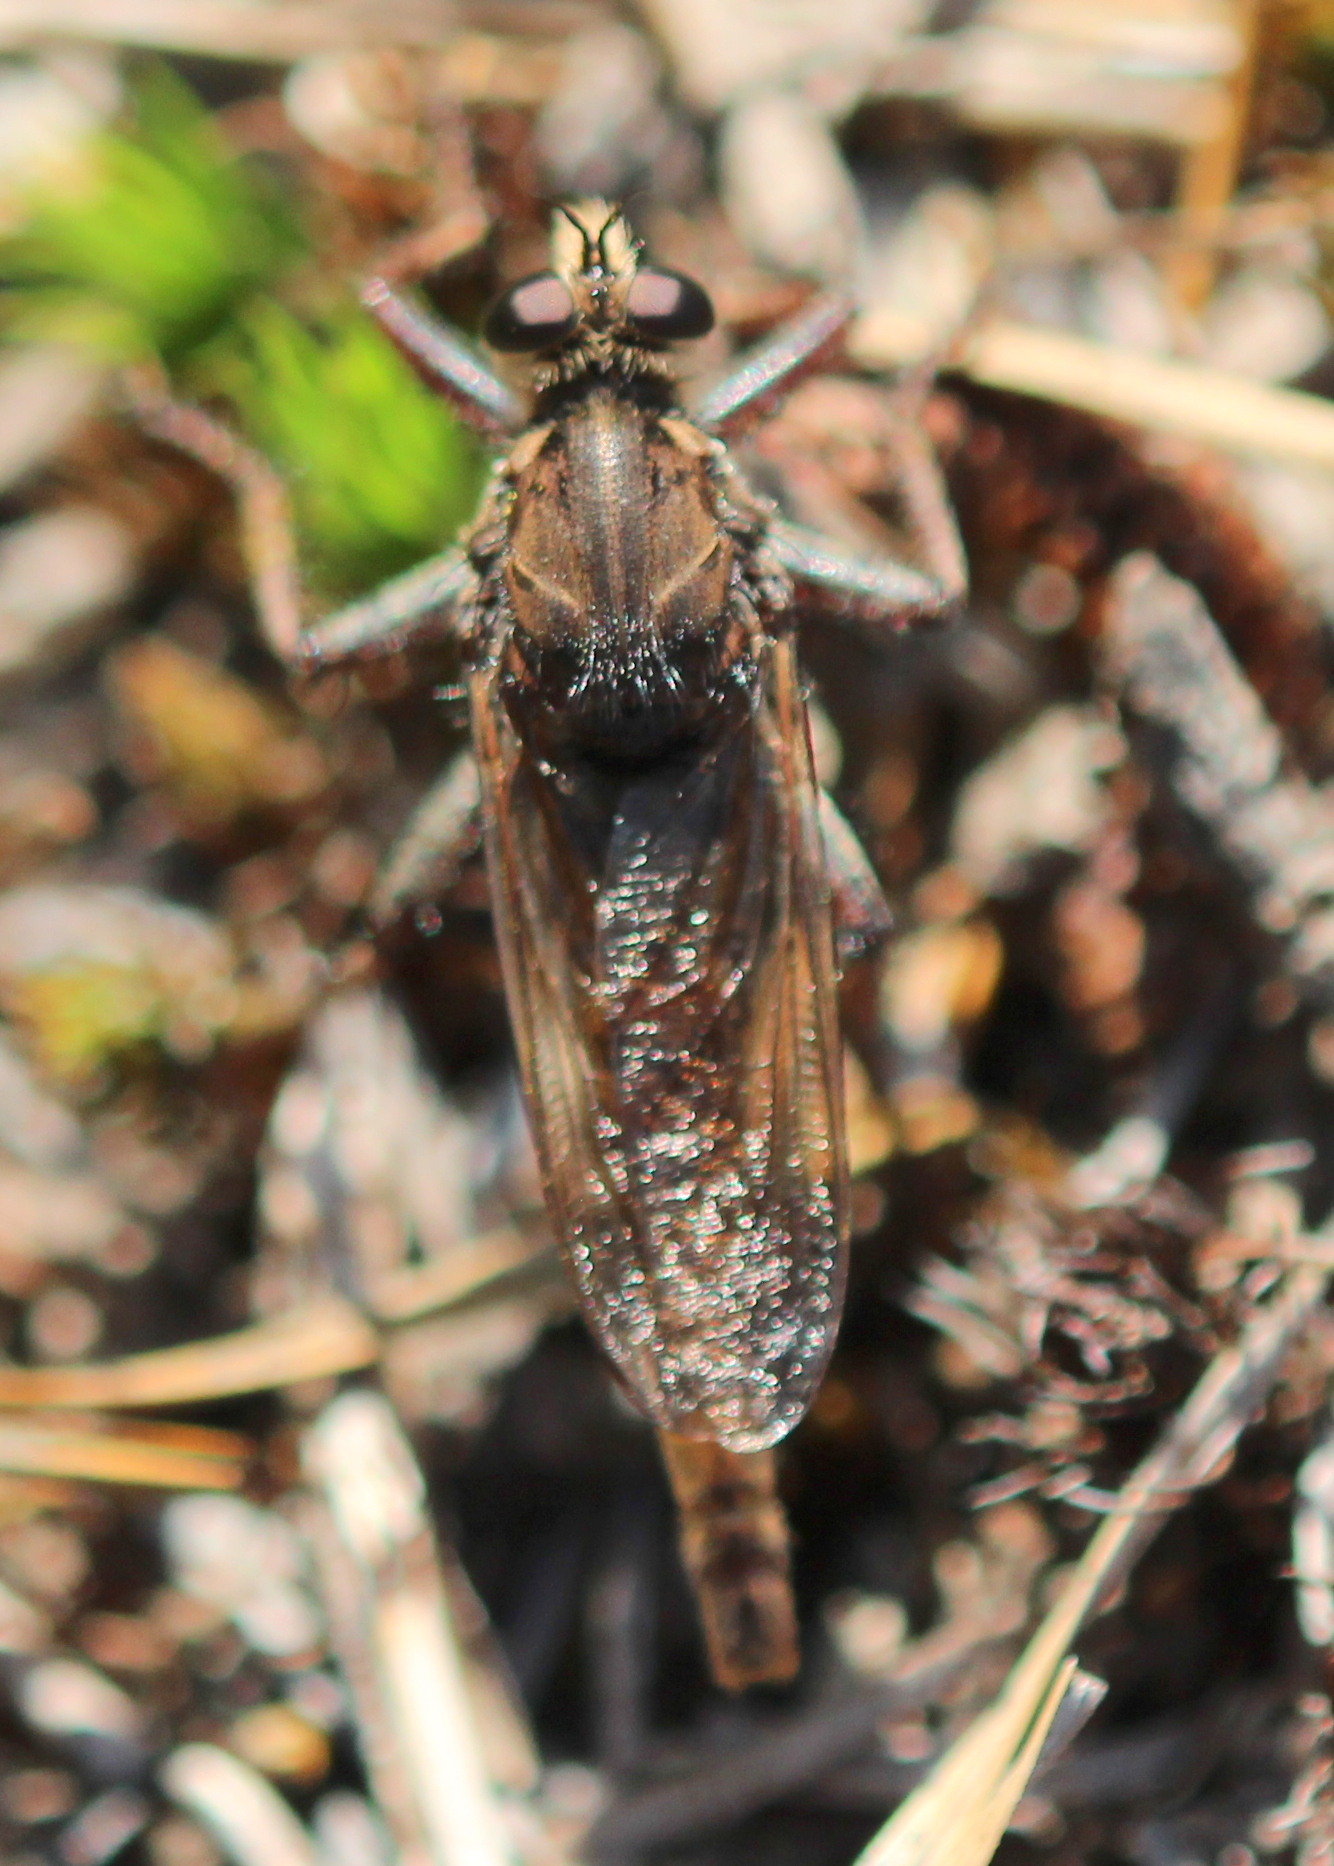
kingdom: Animalia
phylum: Arthropoda
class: Insecta
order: Diptera
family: Asilidae
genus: Proctacanthus
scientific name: Proctacanthus philadelphicus
